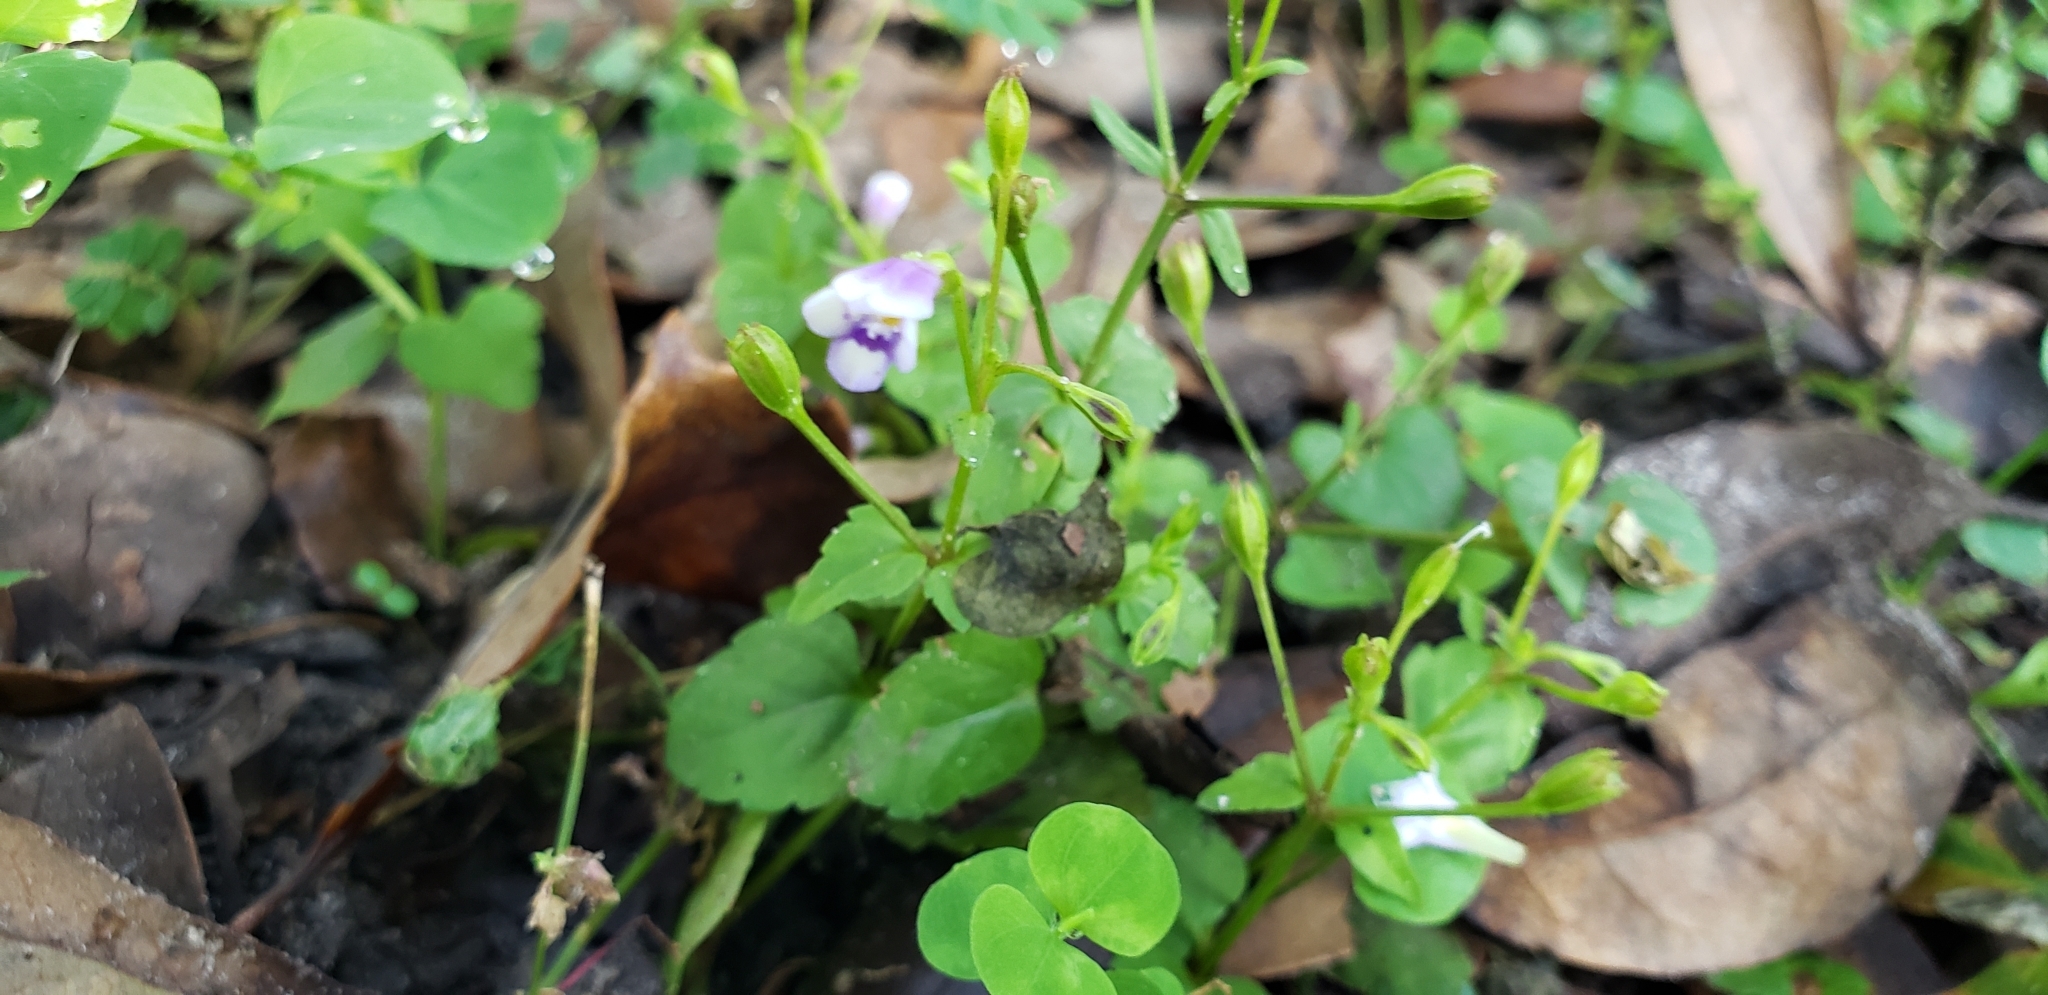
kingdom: Plantae
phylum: Tracheophyta
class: Magnoliopsida
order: Lamiales
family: Linderniaceae
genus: Torenia
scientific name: Torenia crustacea
